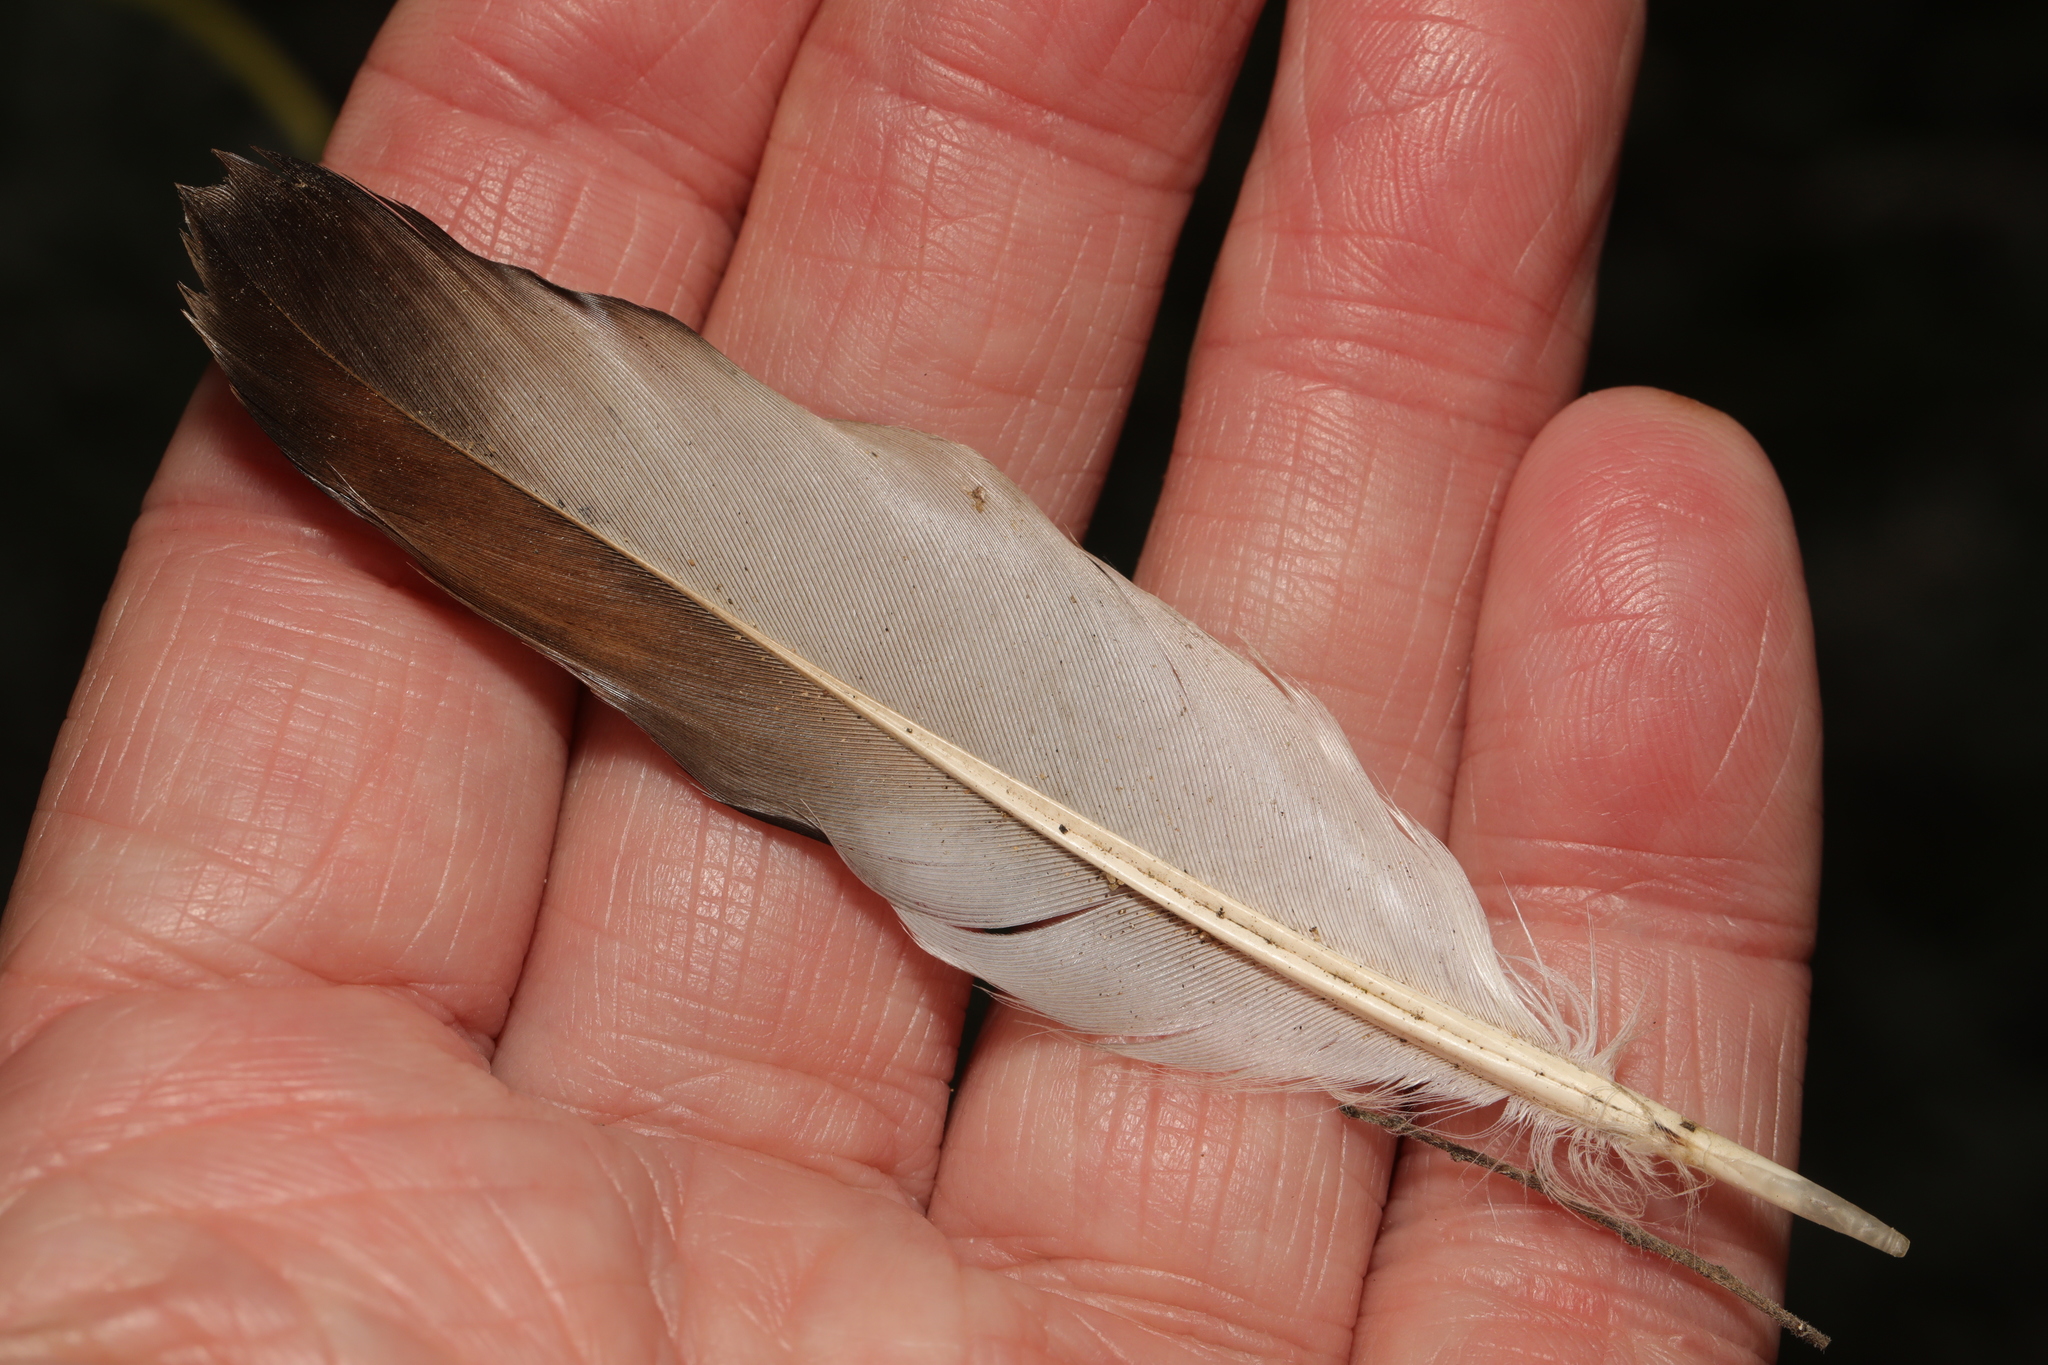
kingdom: Animalia
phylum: Chordata
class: Aves
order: Columbiformes
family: Columbidae
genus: Columba
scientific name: Columba livia
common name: Rock pigeon
